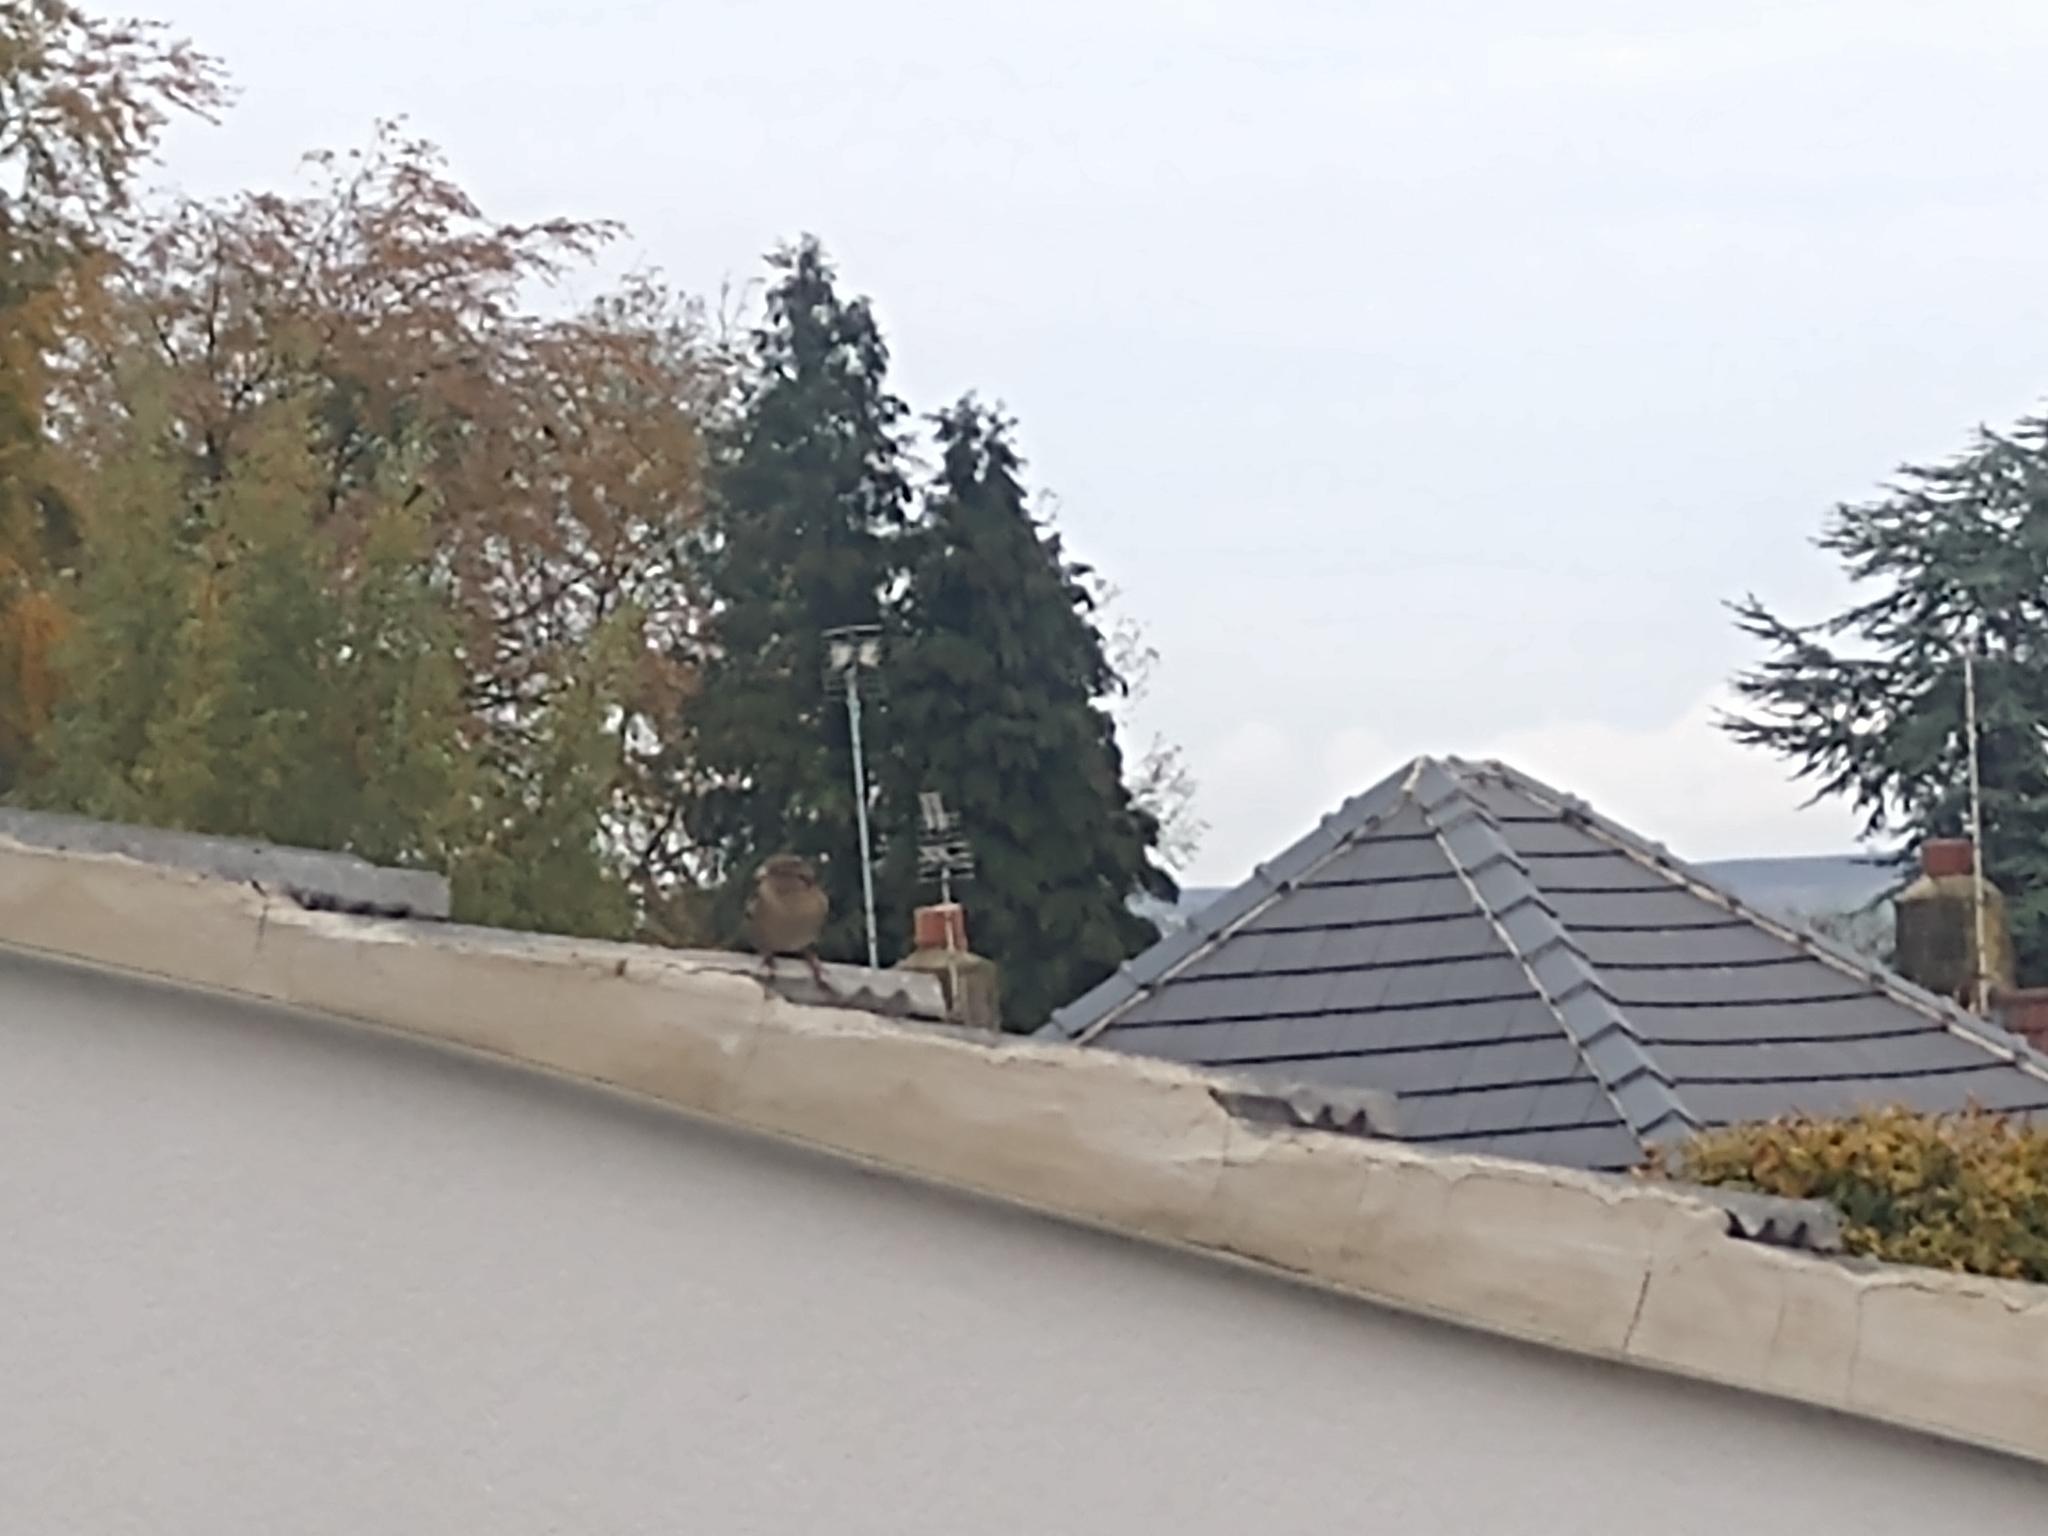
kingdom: Animalia
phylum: Chordata
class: Aves
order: Passeriformes
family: Passeridae
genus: Passer
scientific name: Passer domesticus
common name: House sparrow
